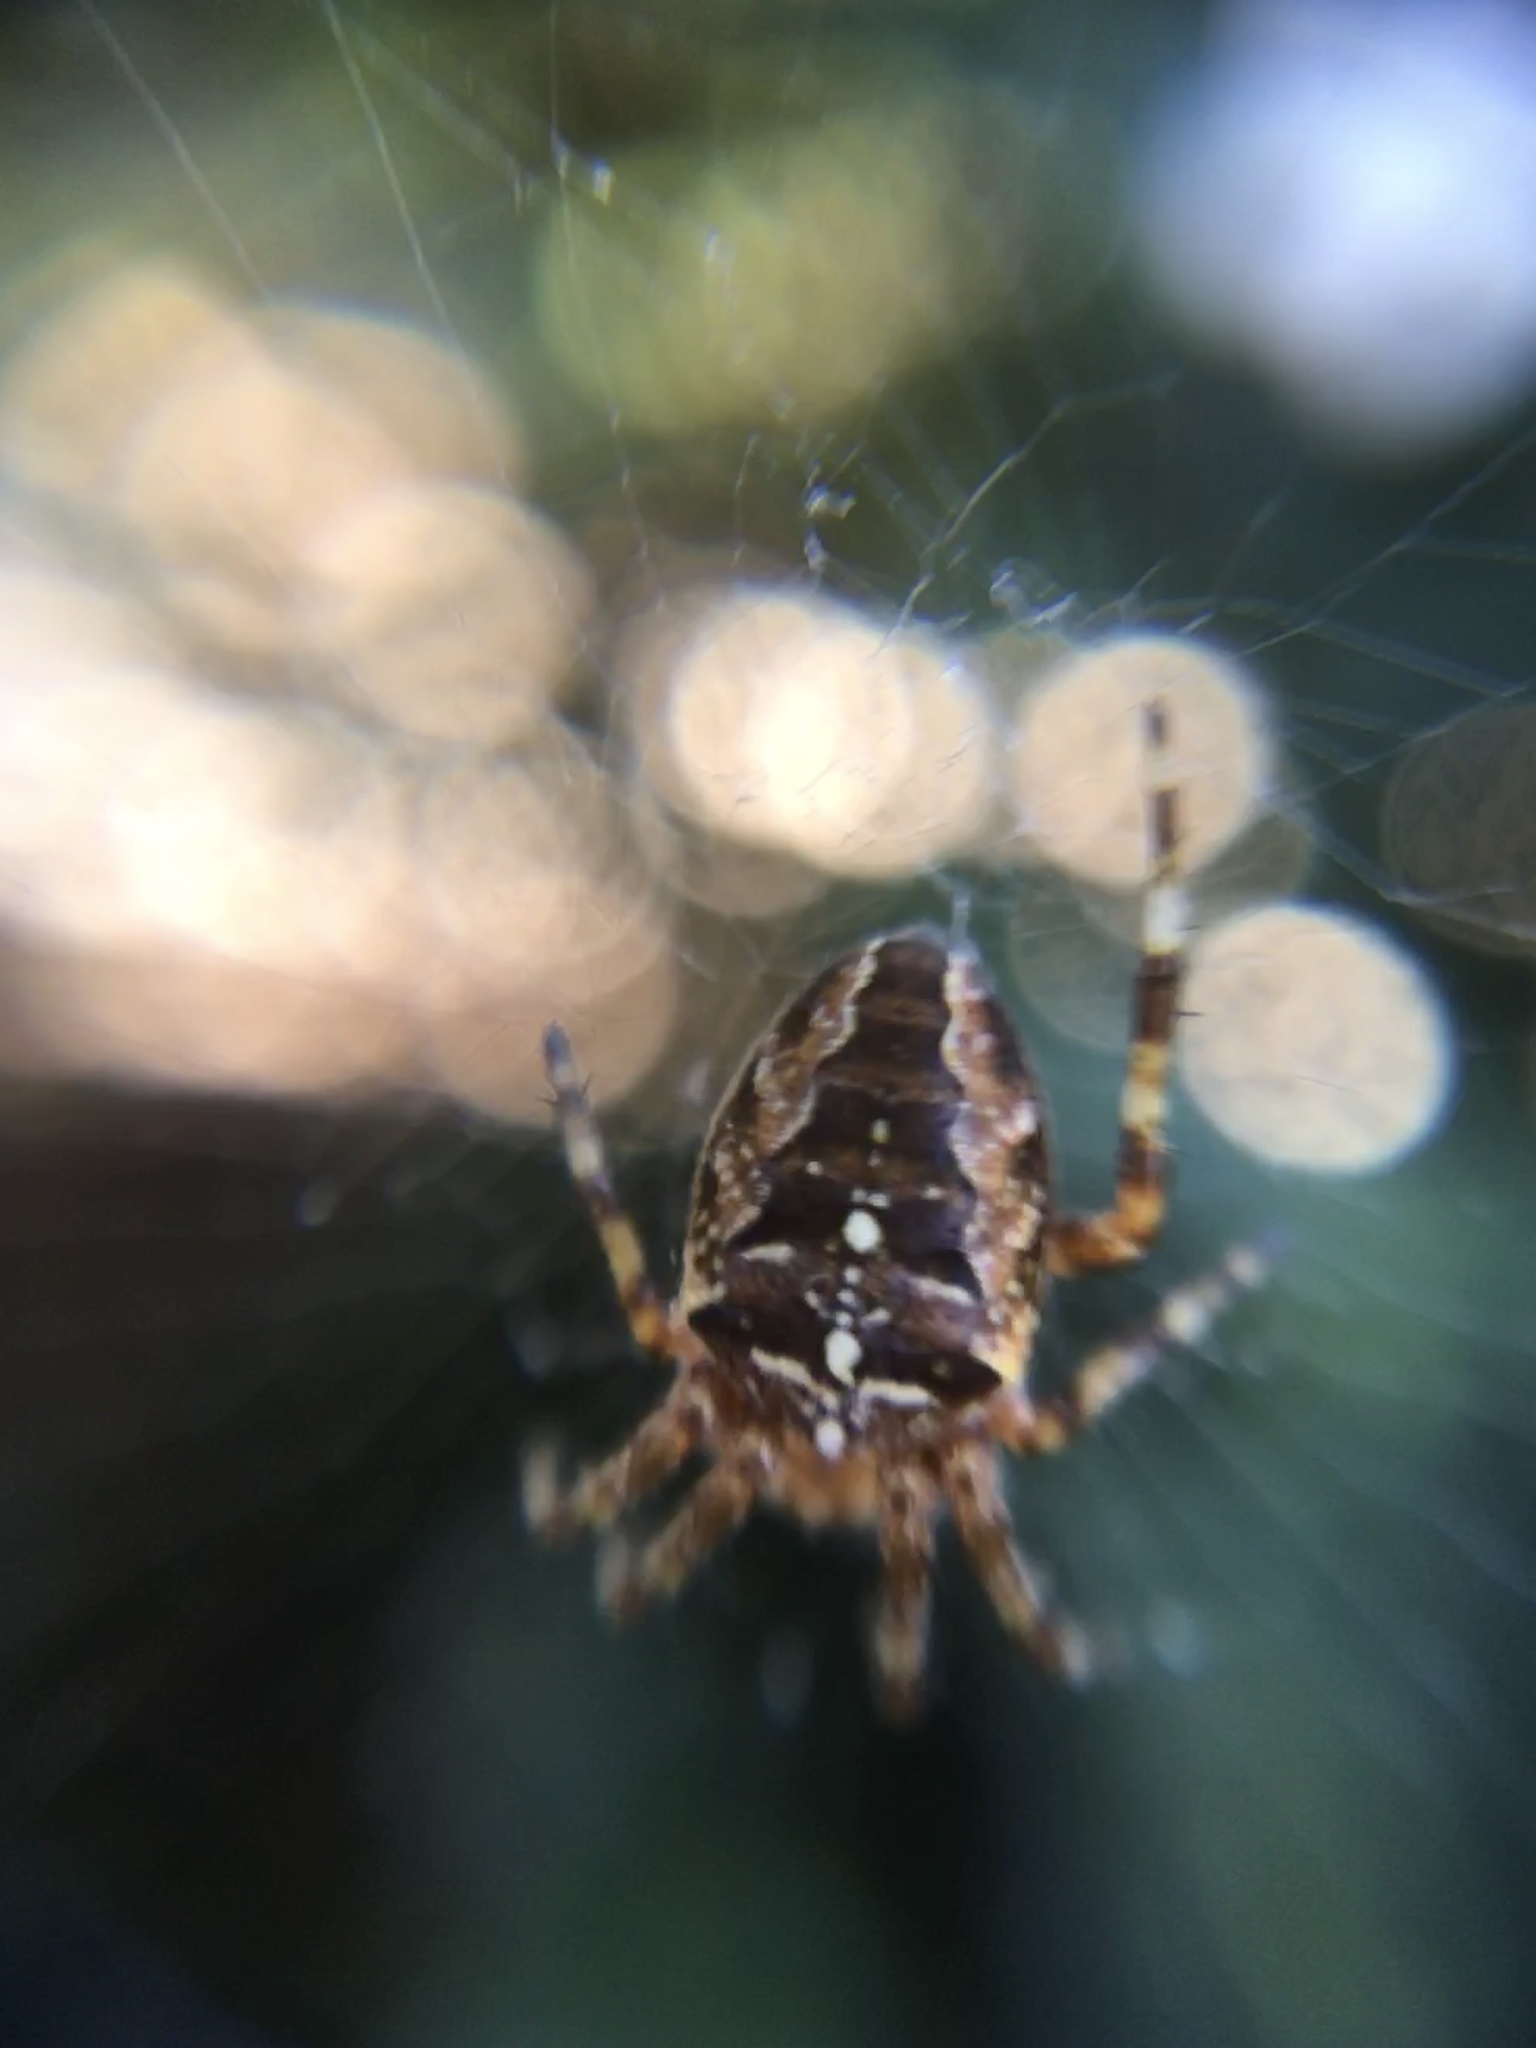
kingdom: Animalia
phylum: Arthropoda
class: Arachnida
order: Araneae
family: Araneidae
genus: Araneus
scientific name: Araneus diadematus
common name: Cross orbweaver
